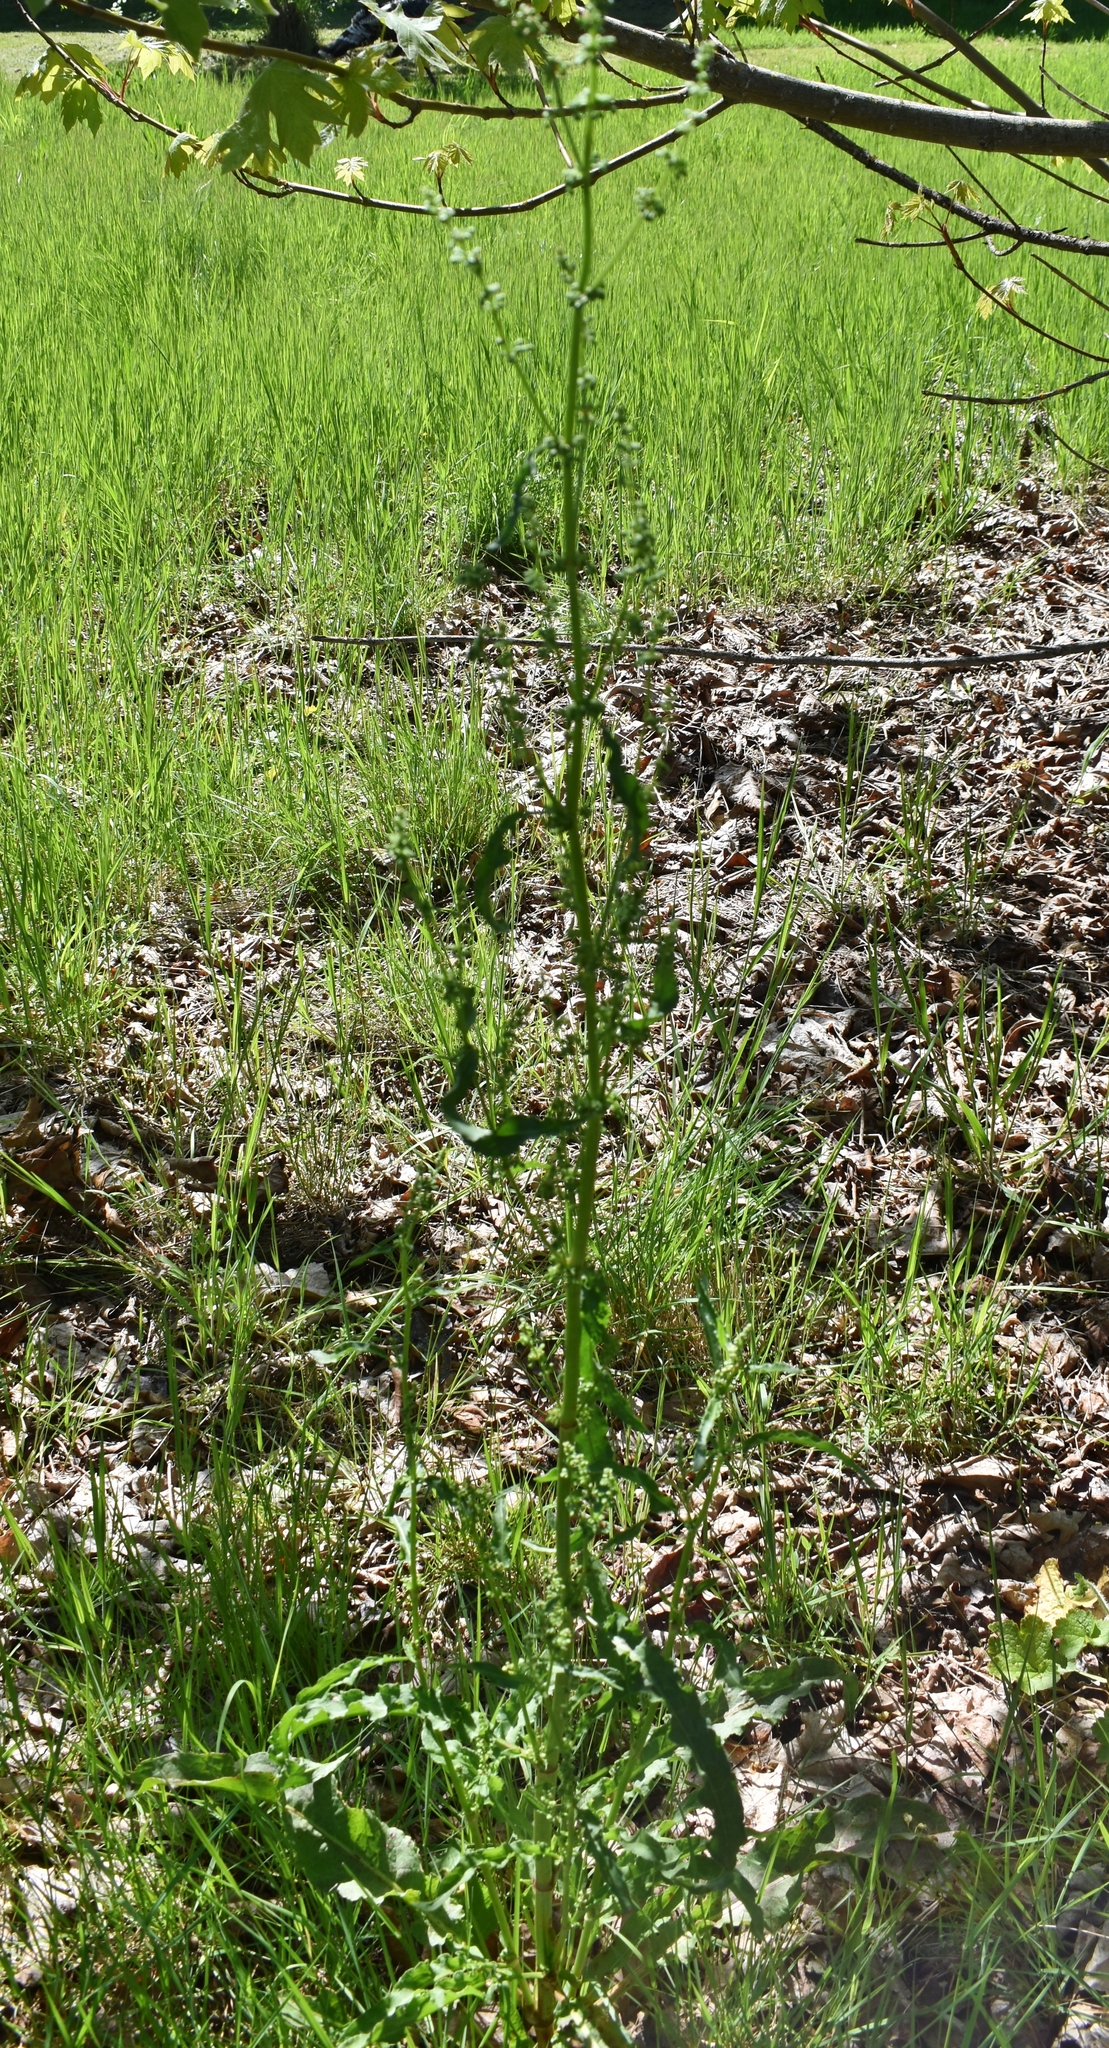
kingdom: Plantae
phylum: Tracheophyta
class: Magnoliopsida
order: Caryophyllales
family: Polygonaceae
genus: Rumex
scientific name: Rumex crispus
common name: Curled dock
